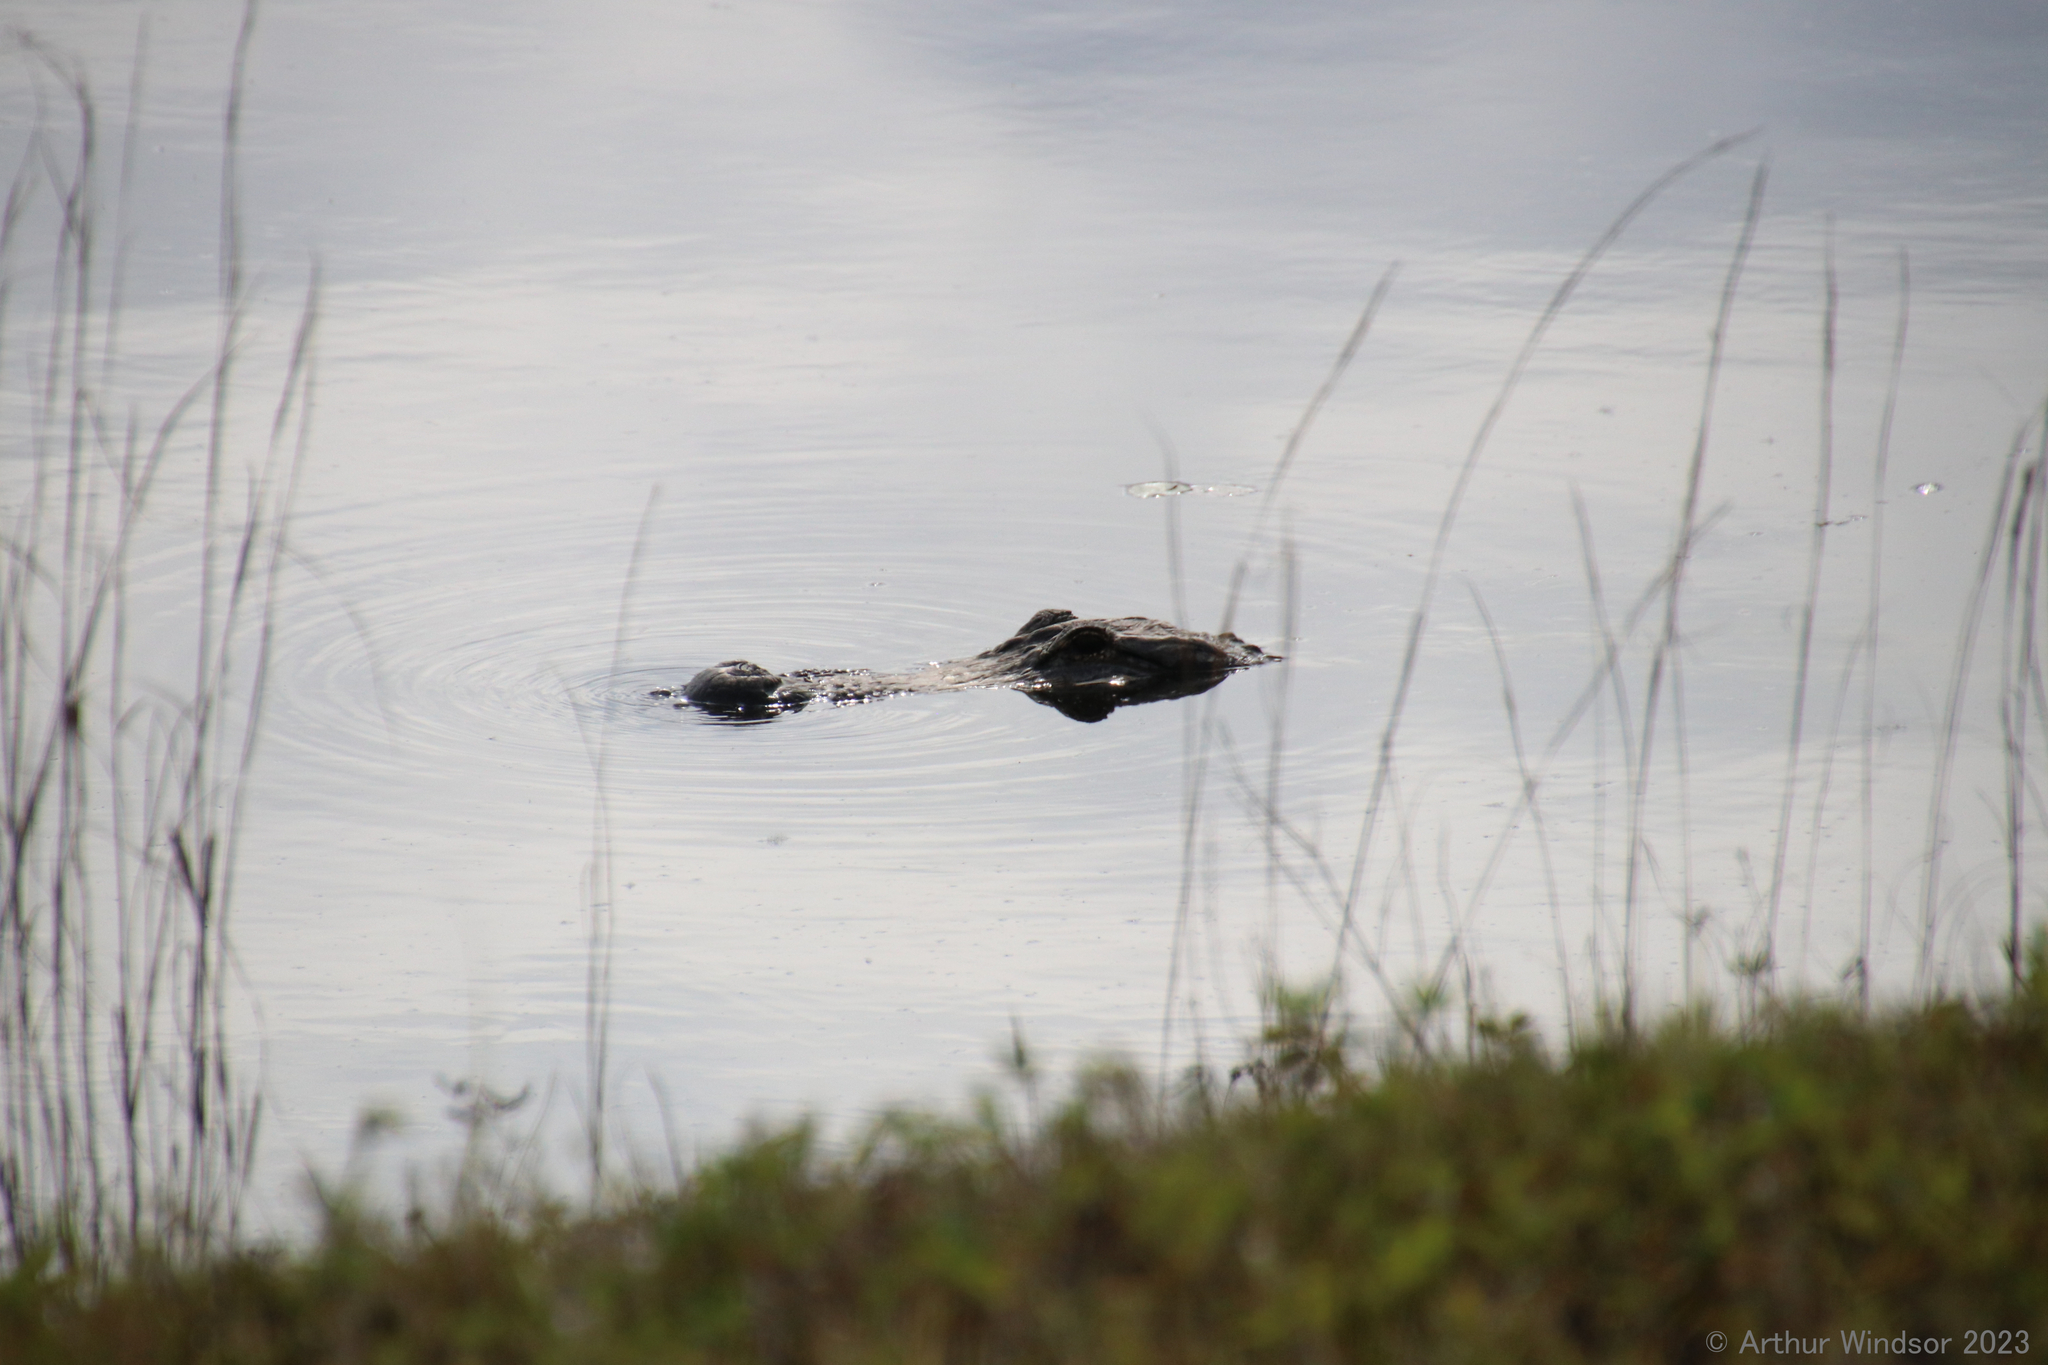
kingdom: Animalia
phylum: Chordata
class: Crocodylia
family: Alligatoridae
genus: Alligator
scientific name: Alligator mississippiensis
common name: American alligator
